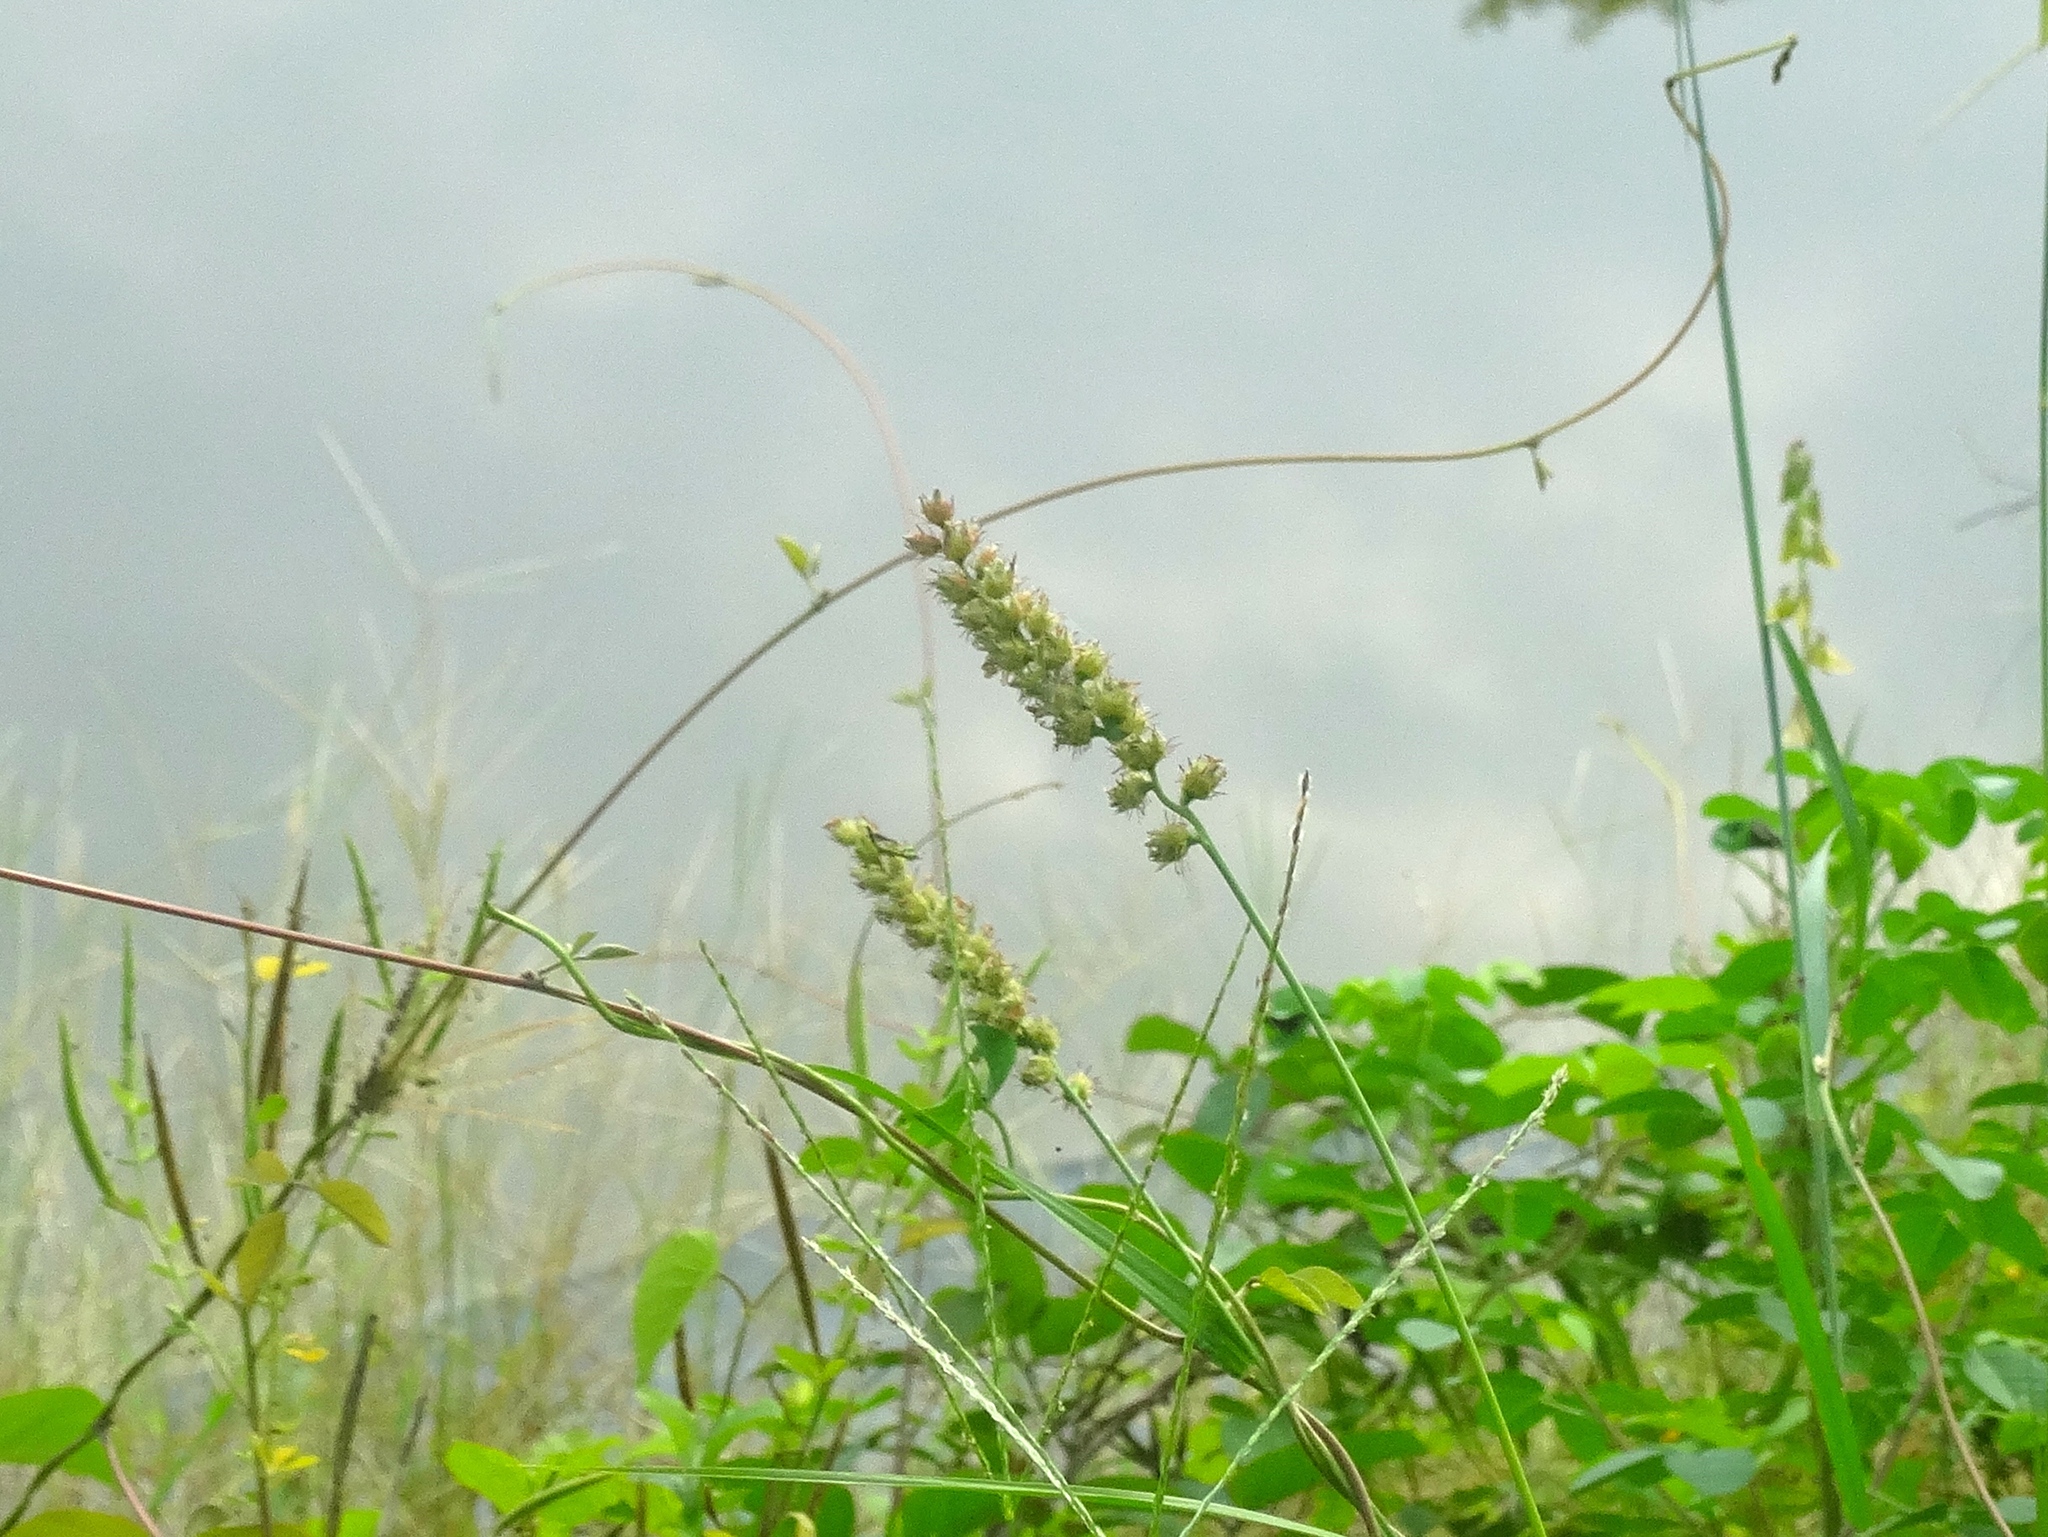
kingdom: Plantae
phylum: Tracheophyta
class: Liliopsida
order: Poales
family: Poaceae
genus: Cenchrus
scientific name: Cenchrus echinatus
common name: Southern sandbur
